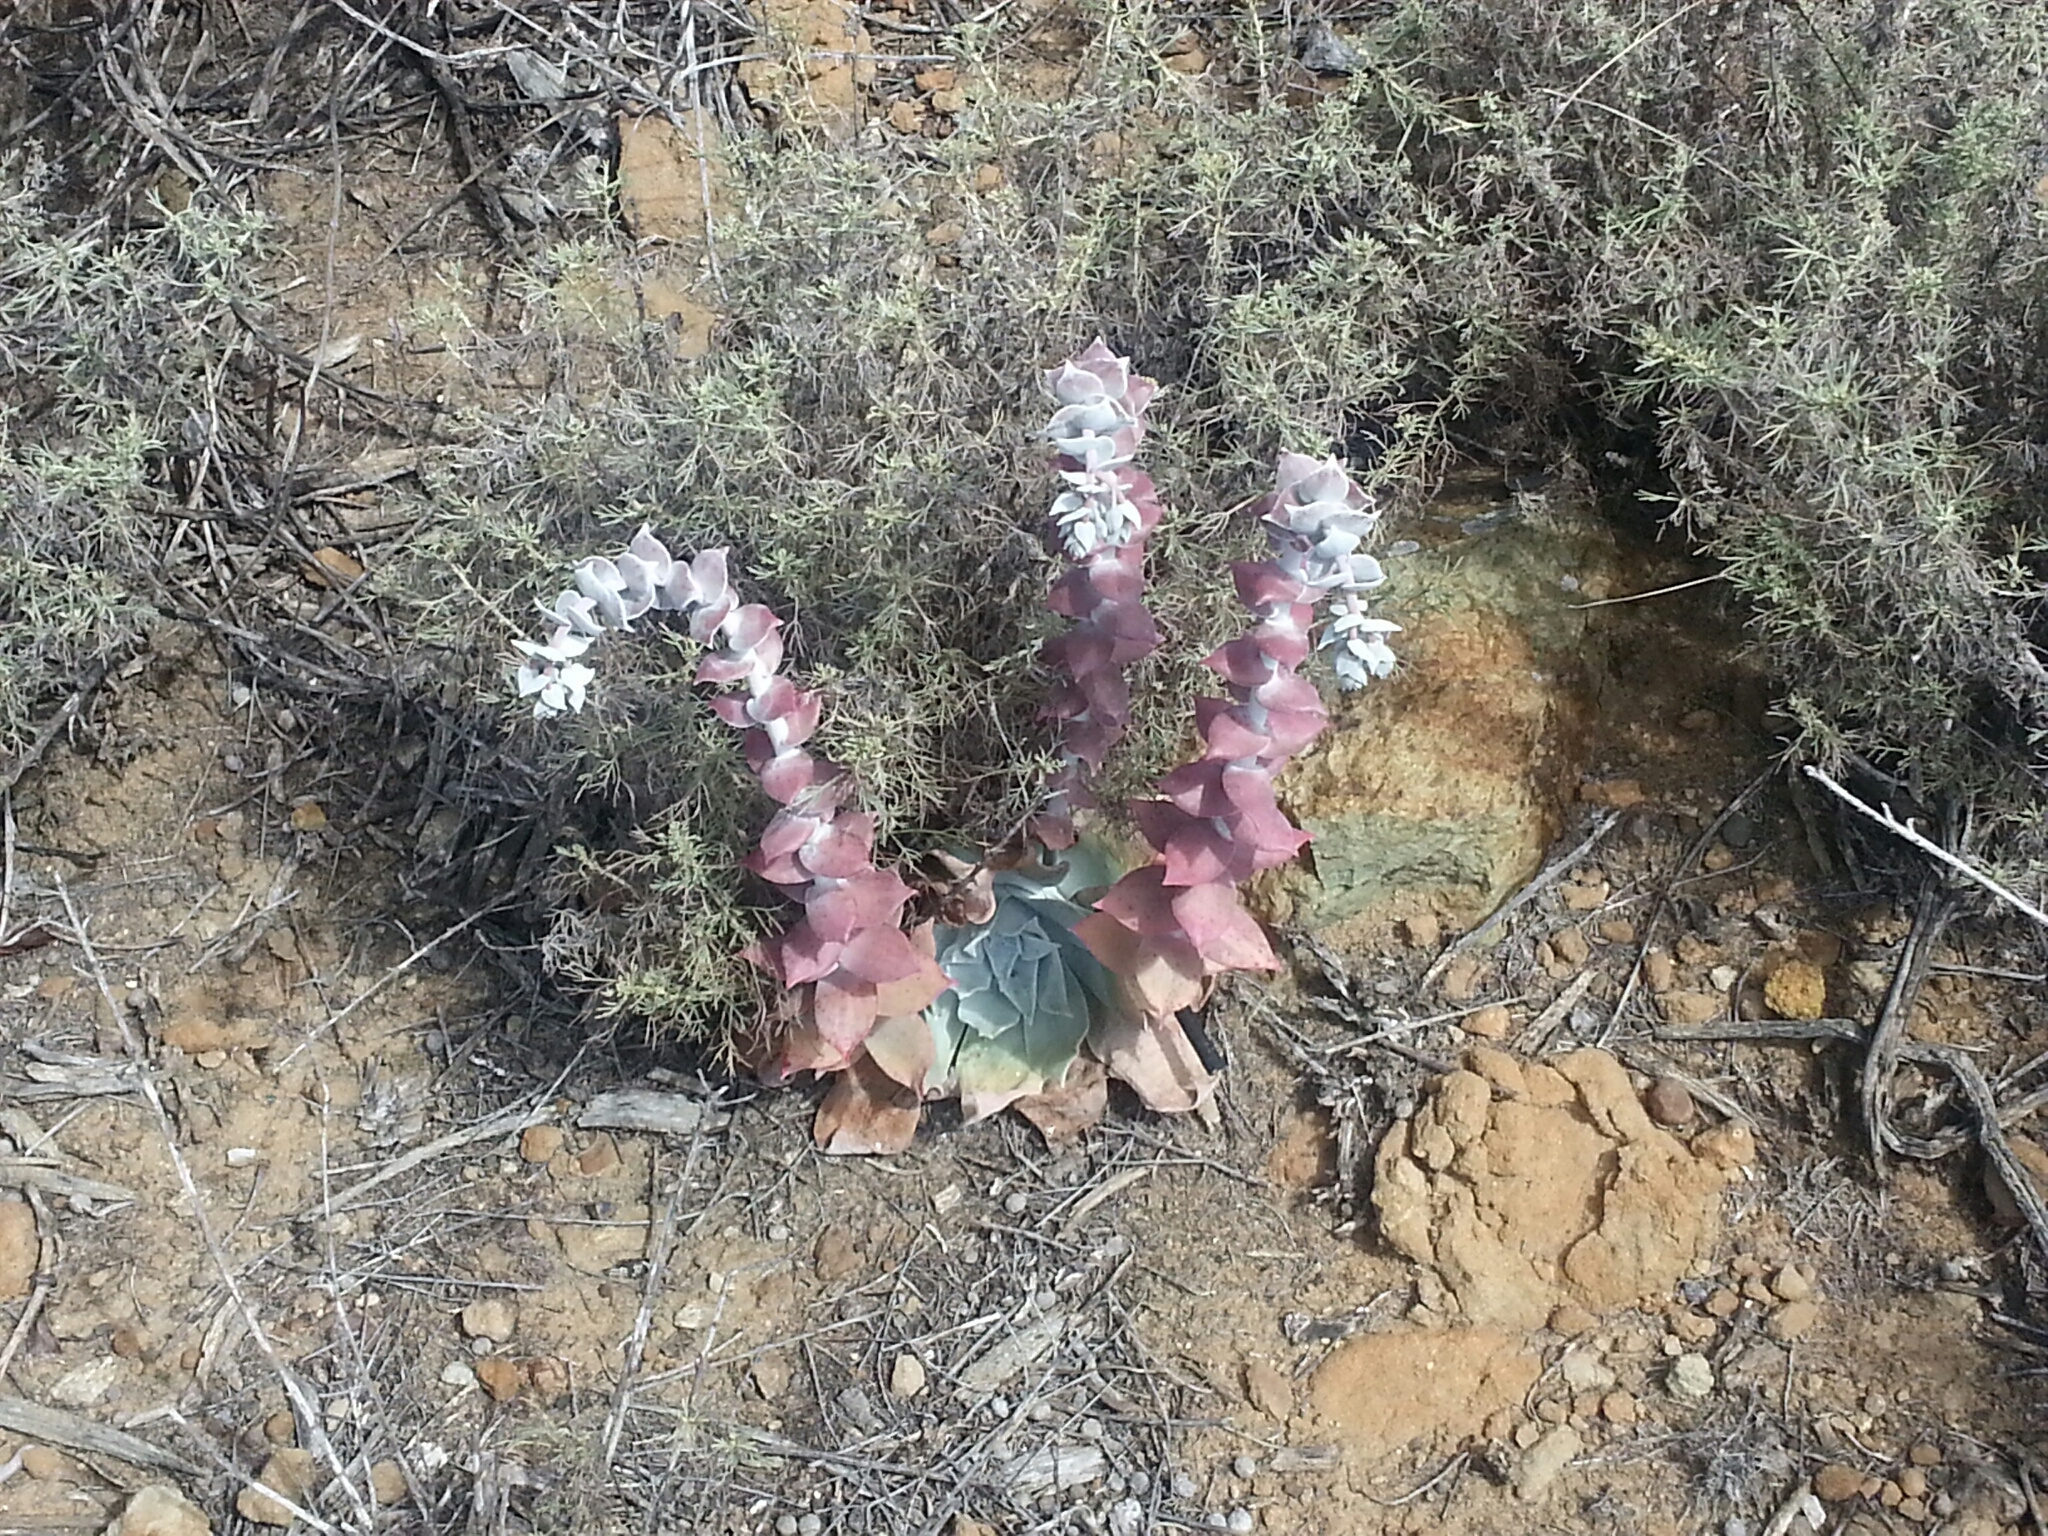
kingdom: Plantae
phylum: Tracheophyta
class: Magnoliopsida
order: Saxifragales
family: Crassulaceae
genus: Dudleya
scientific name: Dudleya pulverulenta
